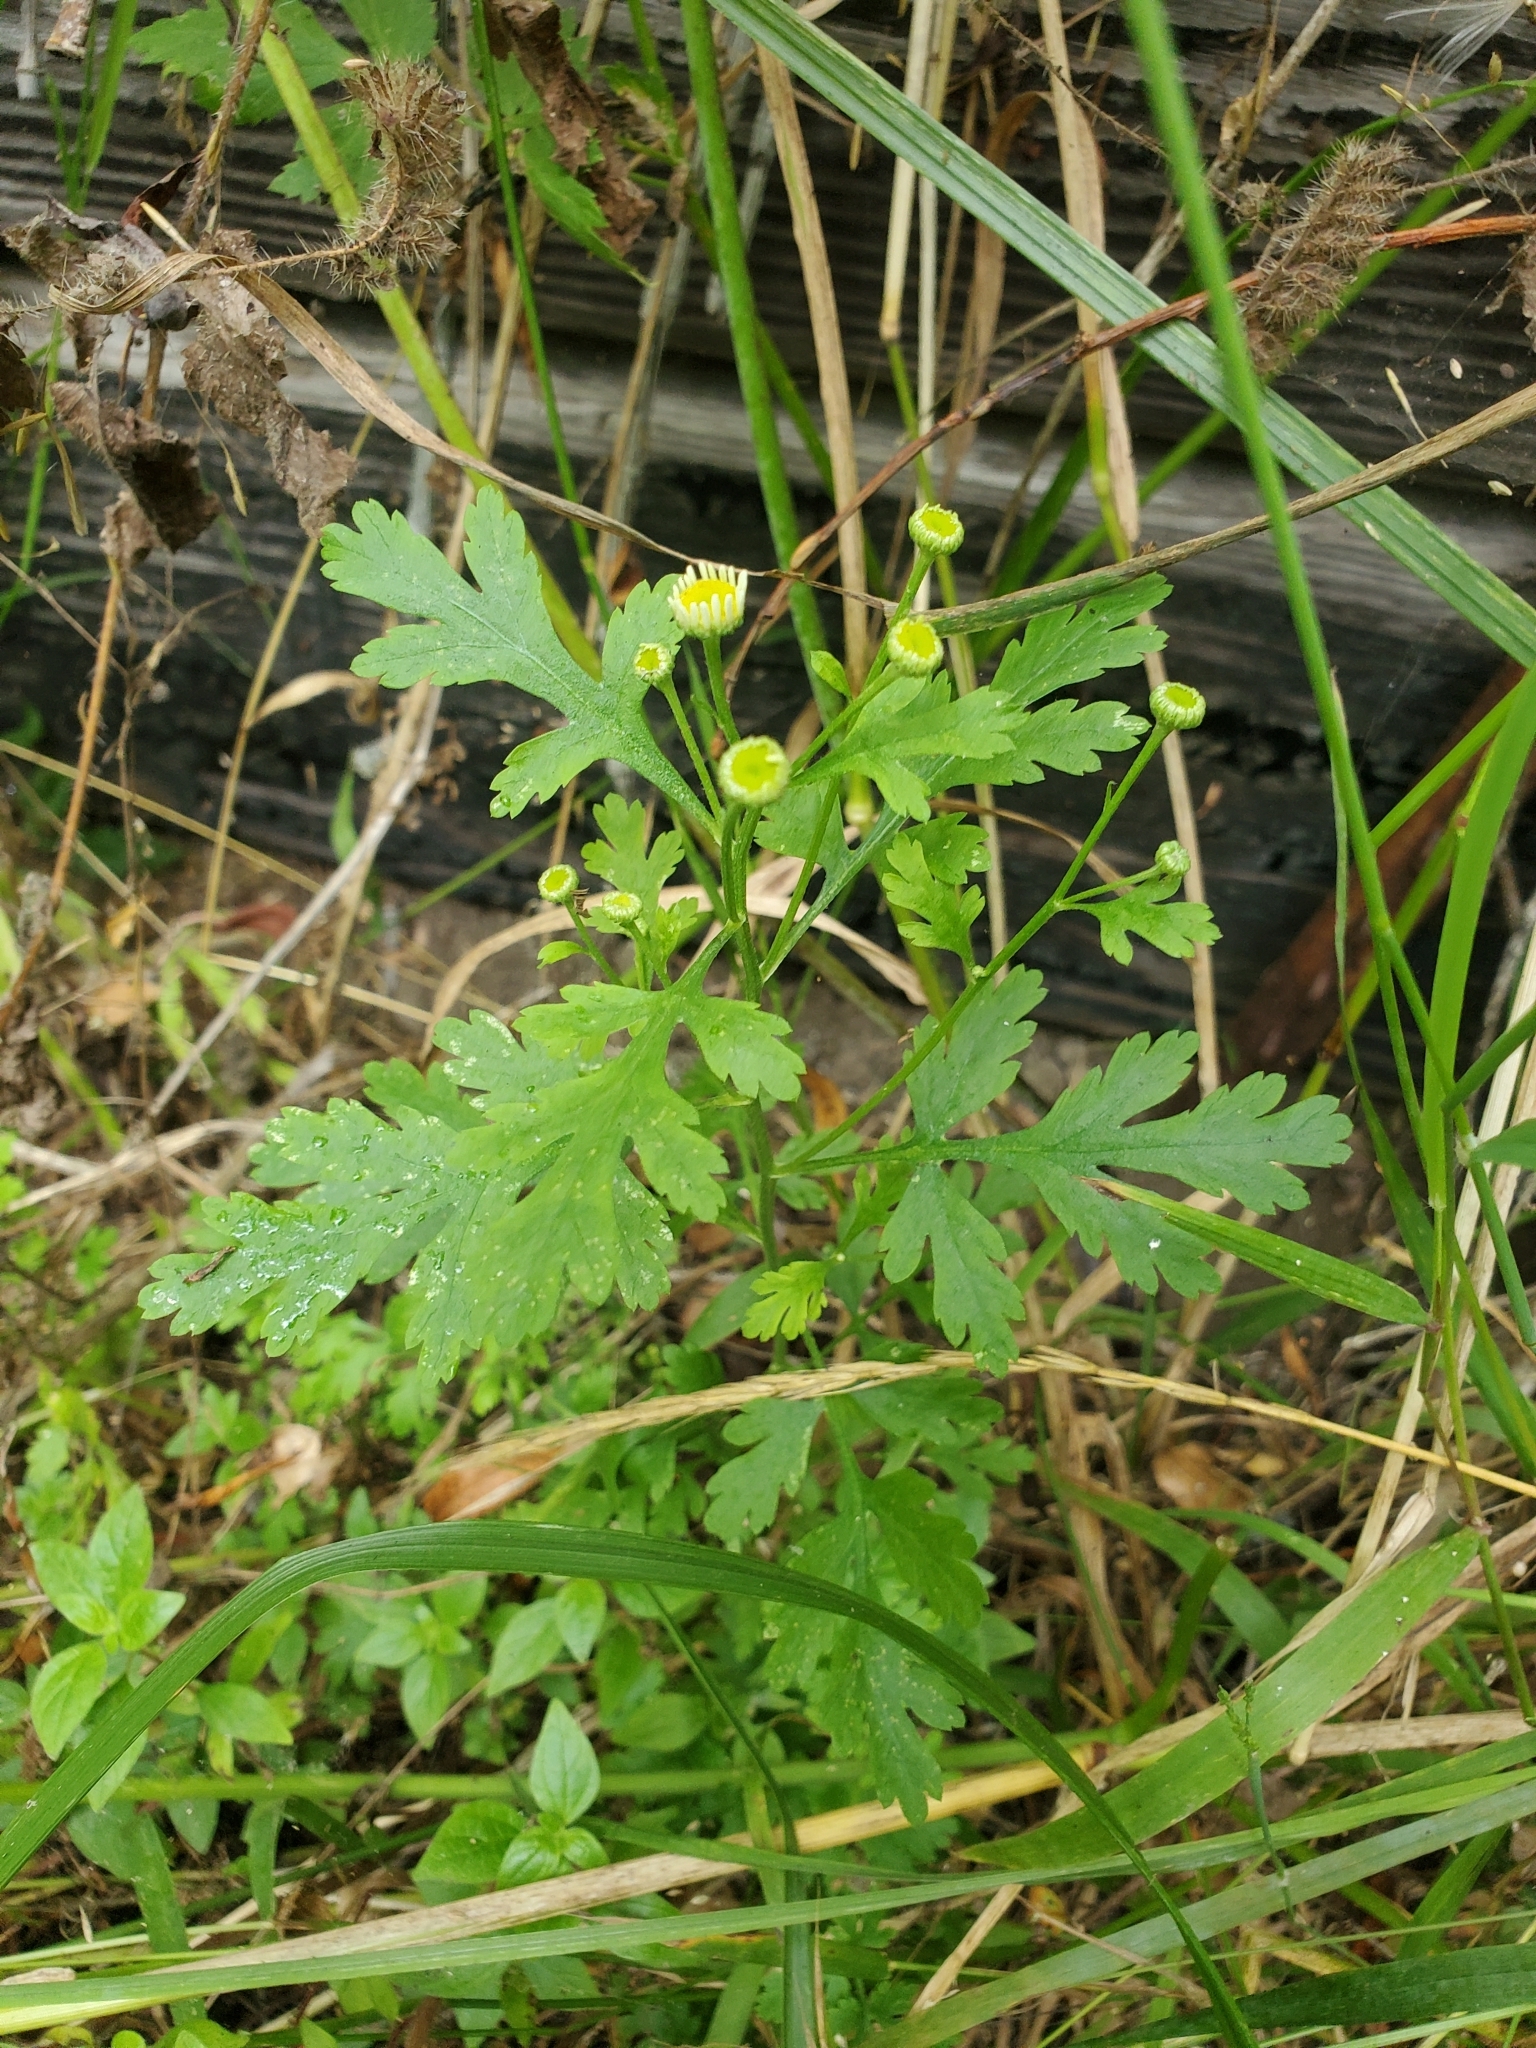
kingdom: Plantae
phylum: Tracheophyta
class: Magnoliopsida
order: Asterales
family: Asteraceae
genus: Tanacetum
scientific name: Tanacetum parthenium
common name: Feverfew
